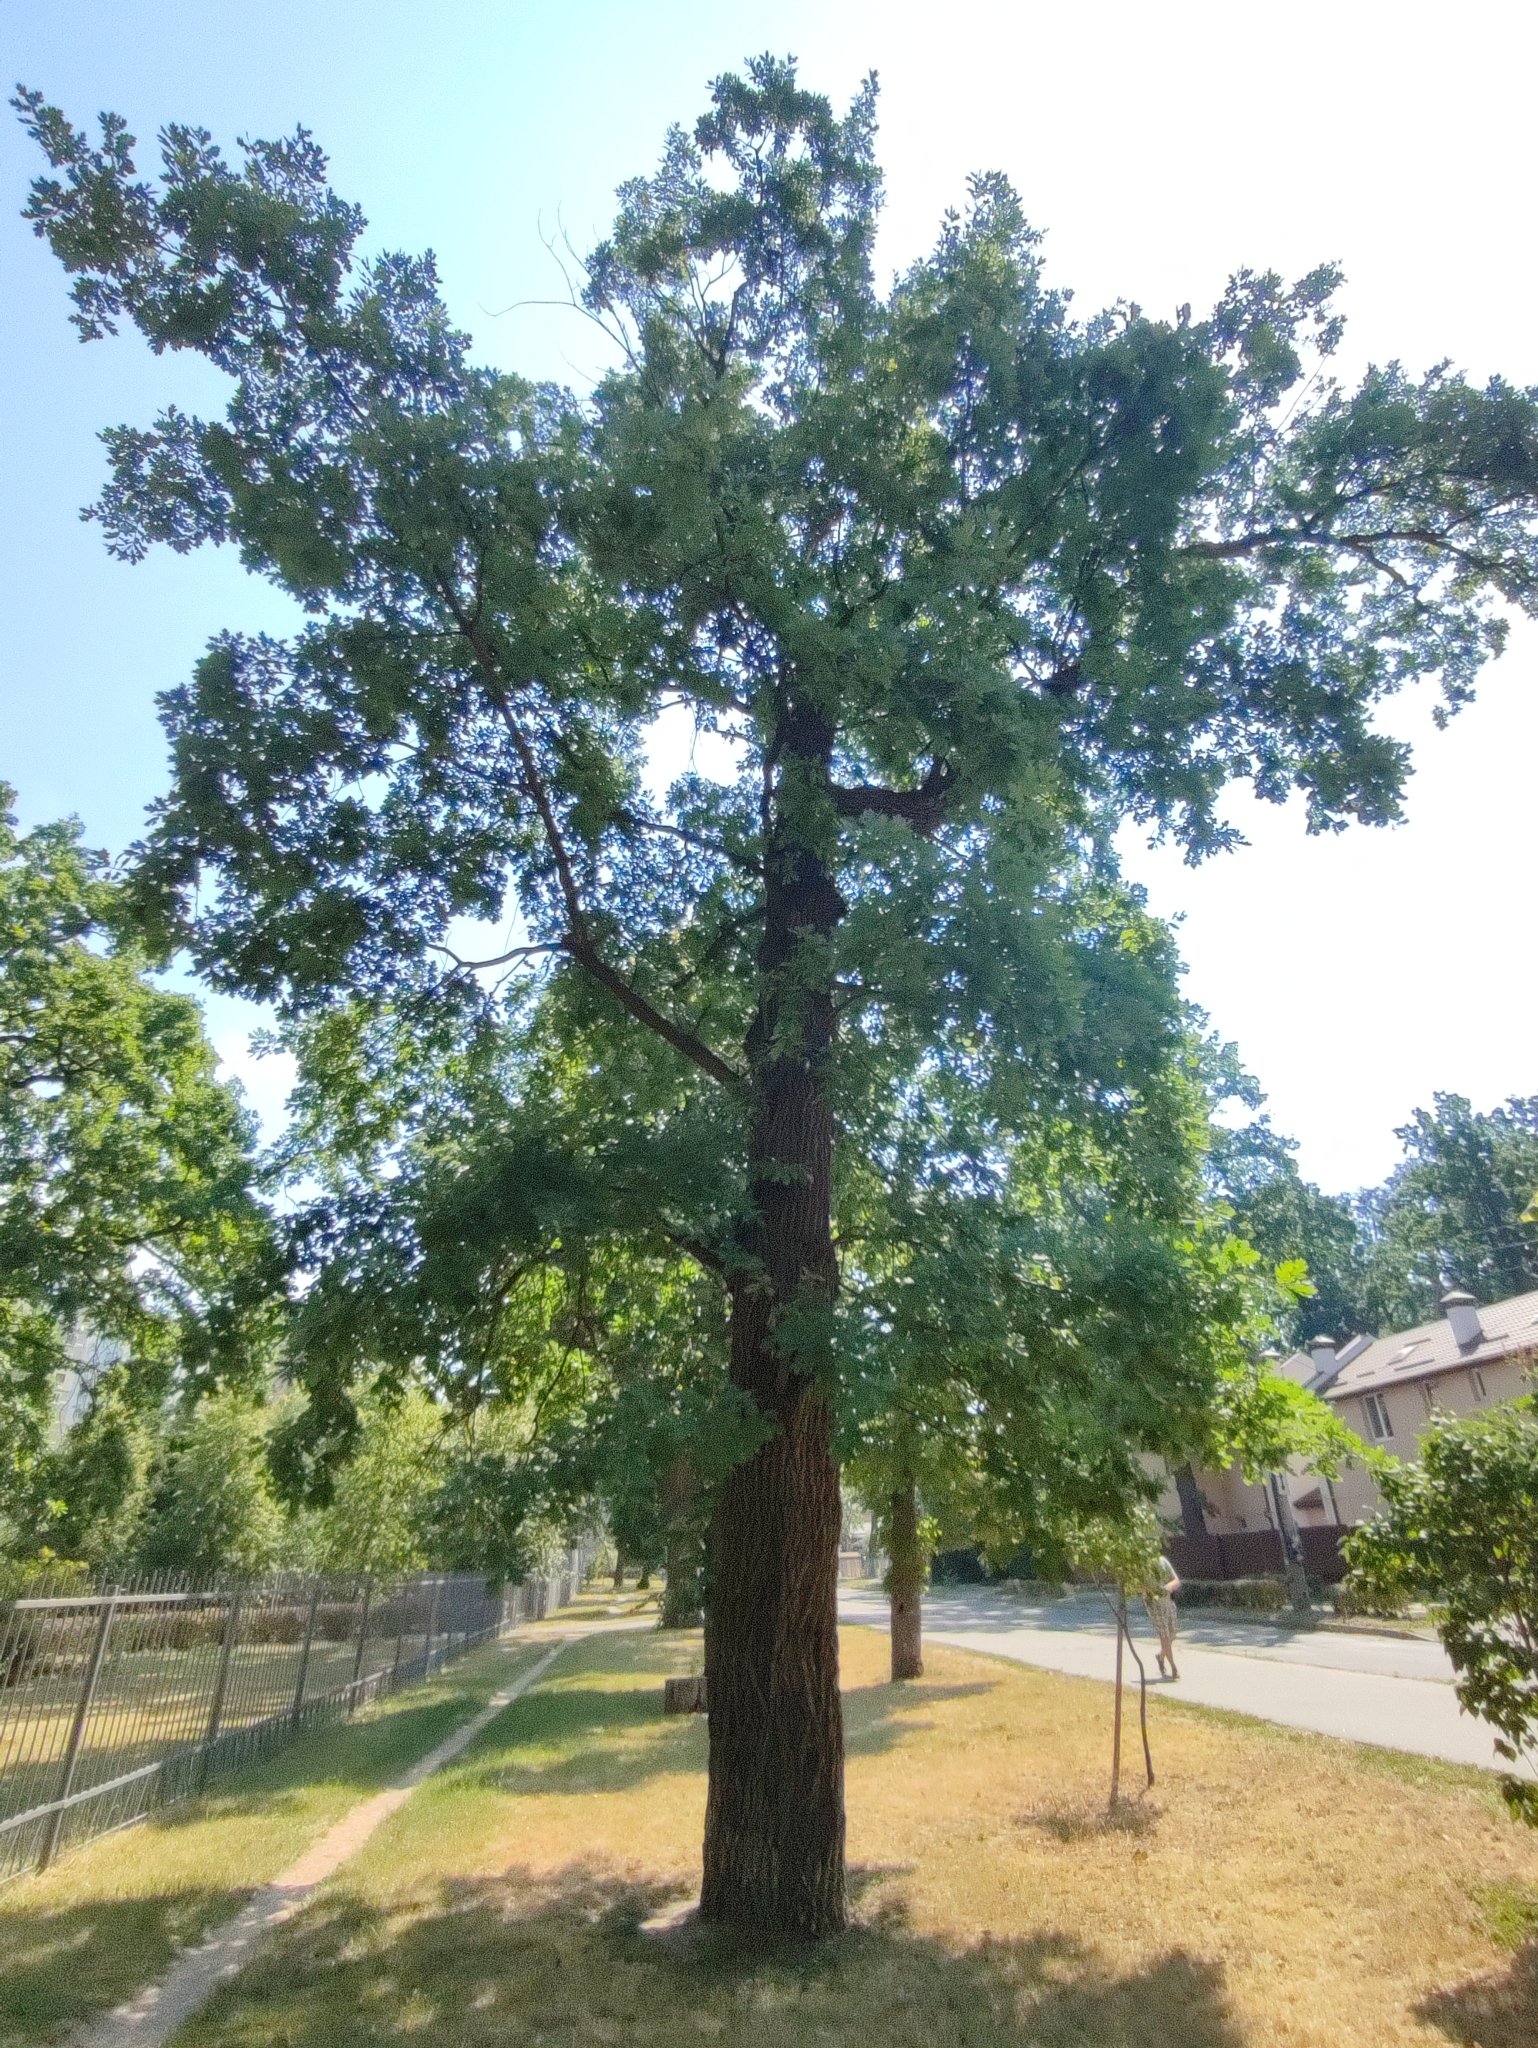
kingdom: Plantae
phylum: Tracheophyta
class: Magnoliopsida
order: Fagales
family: Fagaceae
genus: Quercus
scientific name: Quercus robur
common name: Pedunculate oak
